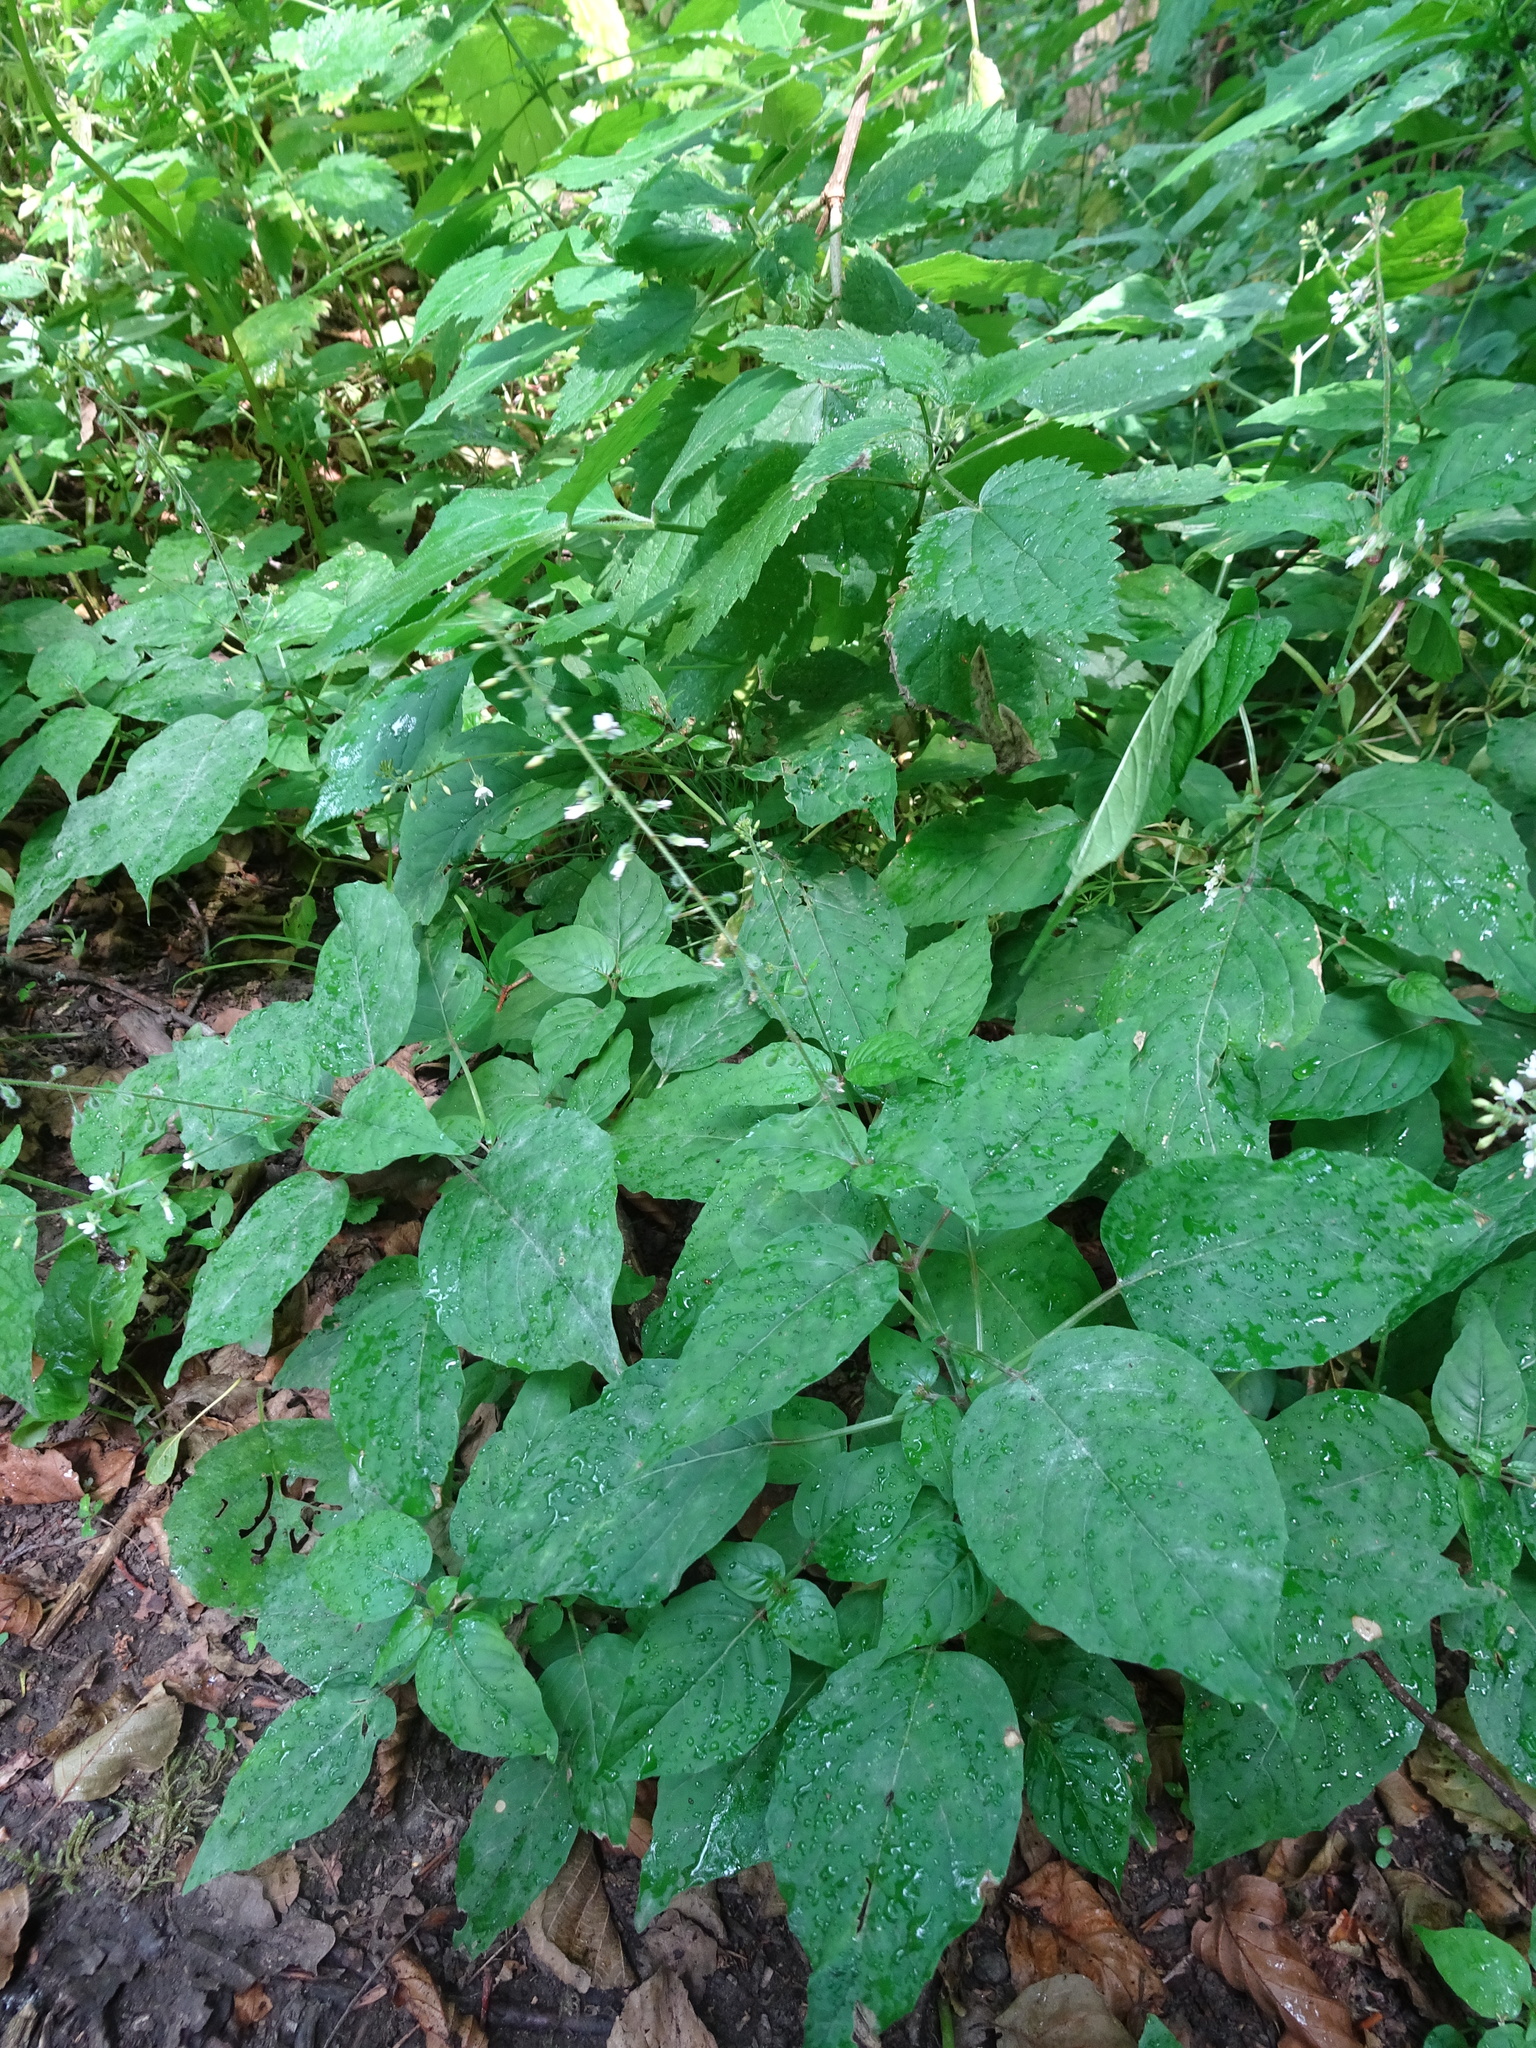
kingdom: Plantae
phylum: Tracheophyta
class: Magnoliopsida
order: Myrtales
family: Onagraceae
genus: Circaea
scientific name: Circaea lutetiana
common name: Enchanter's-nightshade
